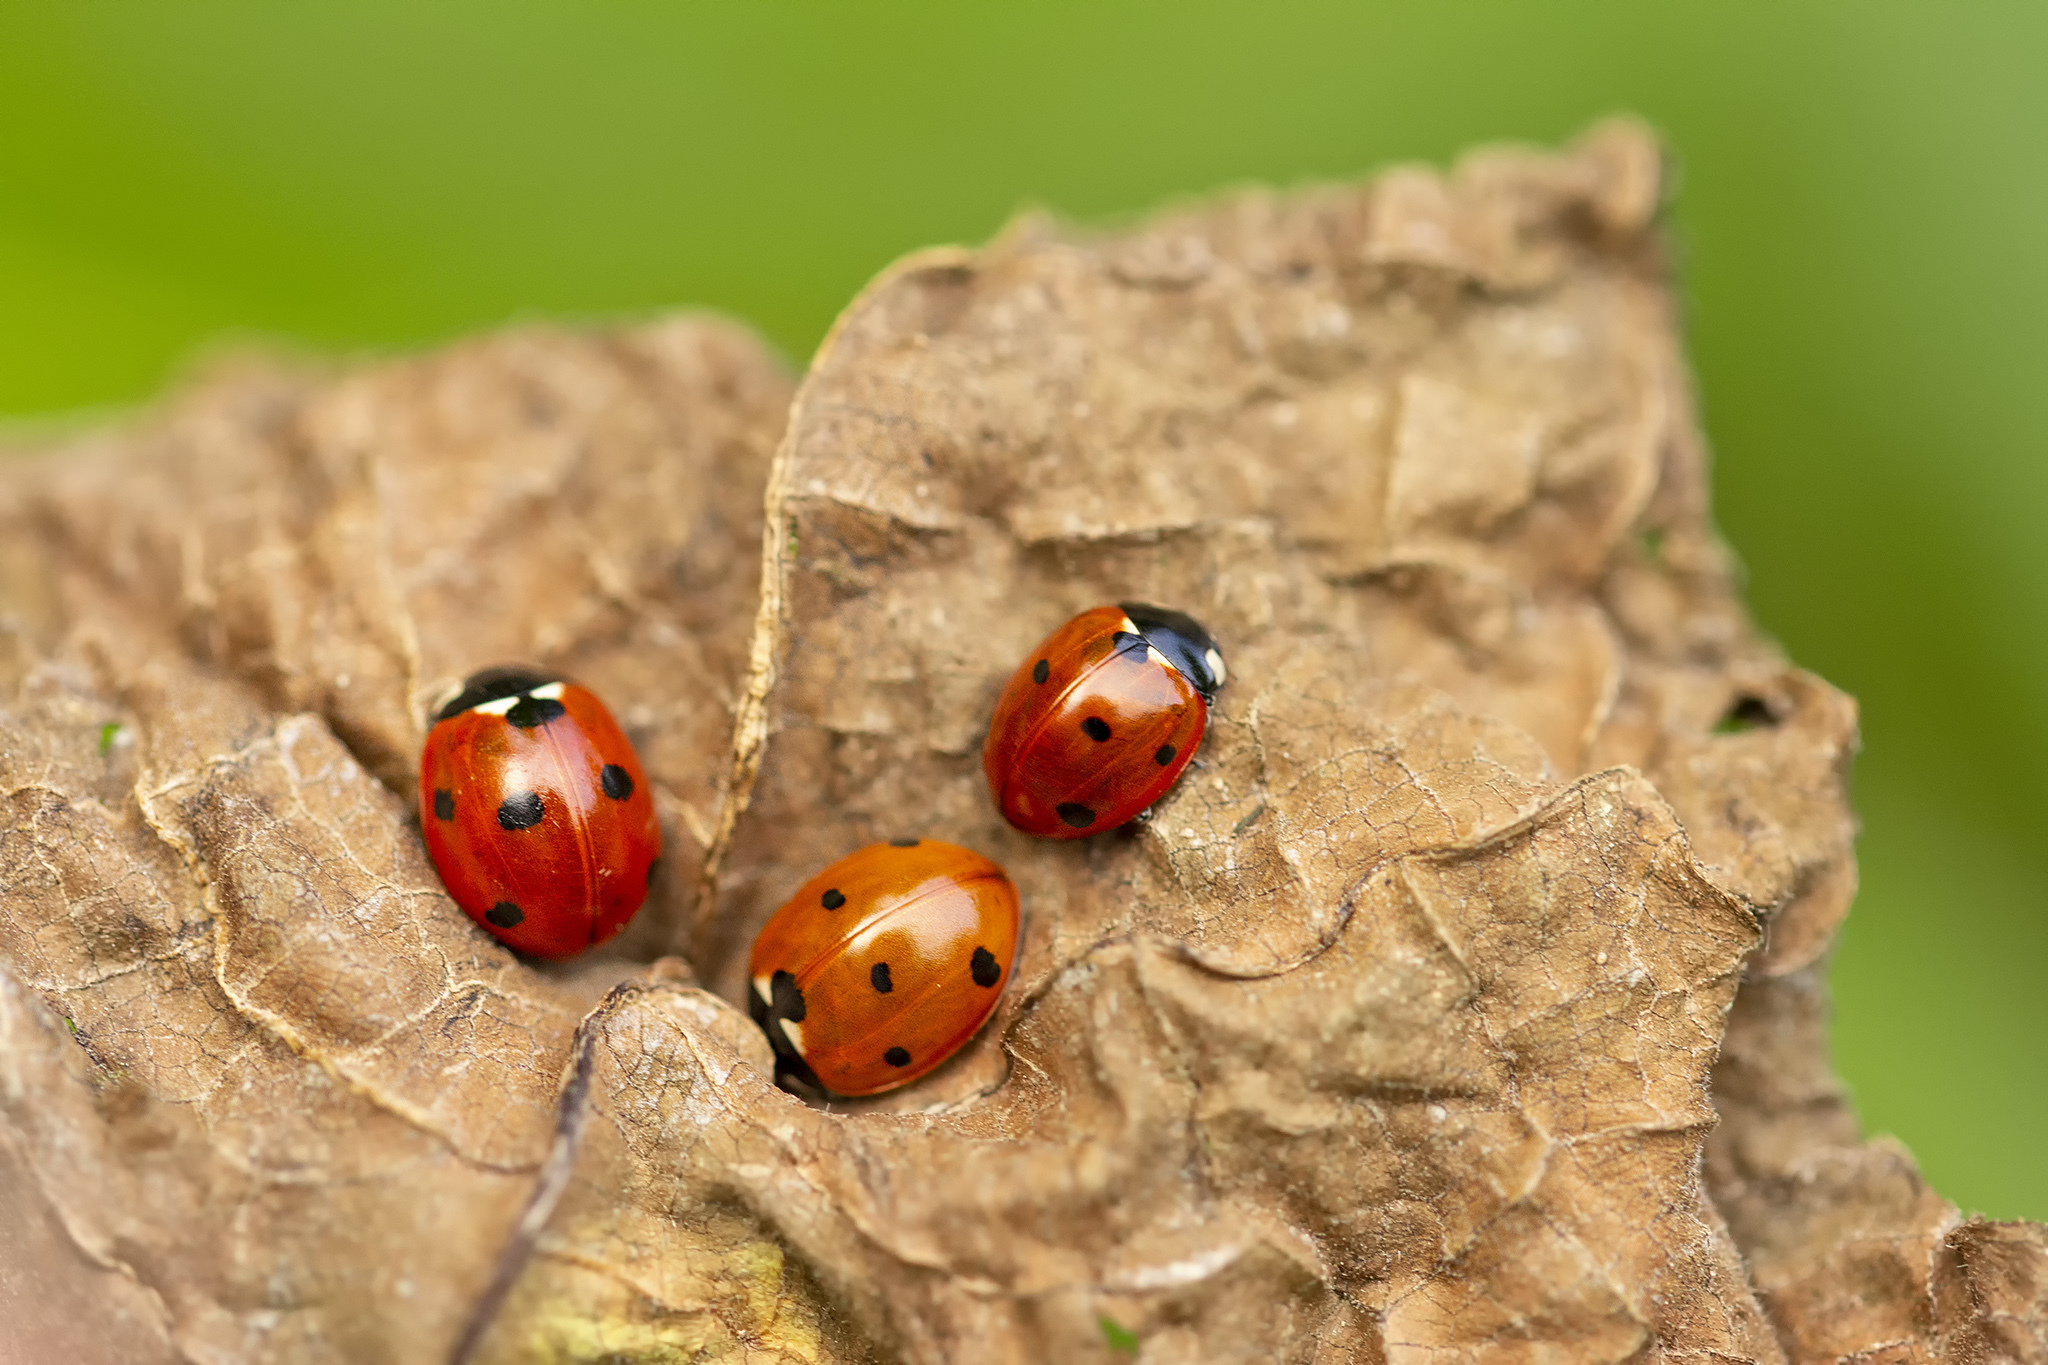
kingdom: Animalia
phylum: Arthropoda
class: Insecta
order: Coleoptera
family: Coccinellidae
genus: Coccinella
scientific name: Coccinella septempunctata
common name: Sevenspotted lady beetle
